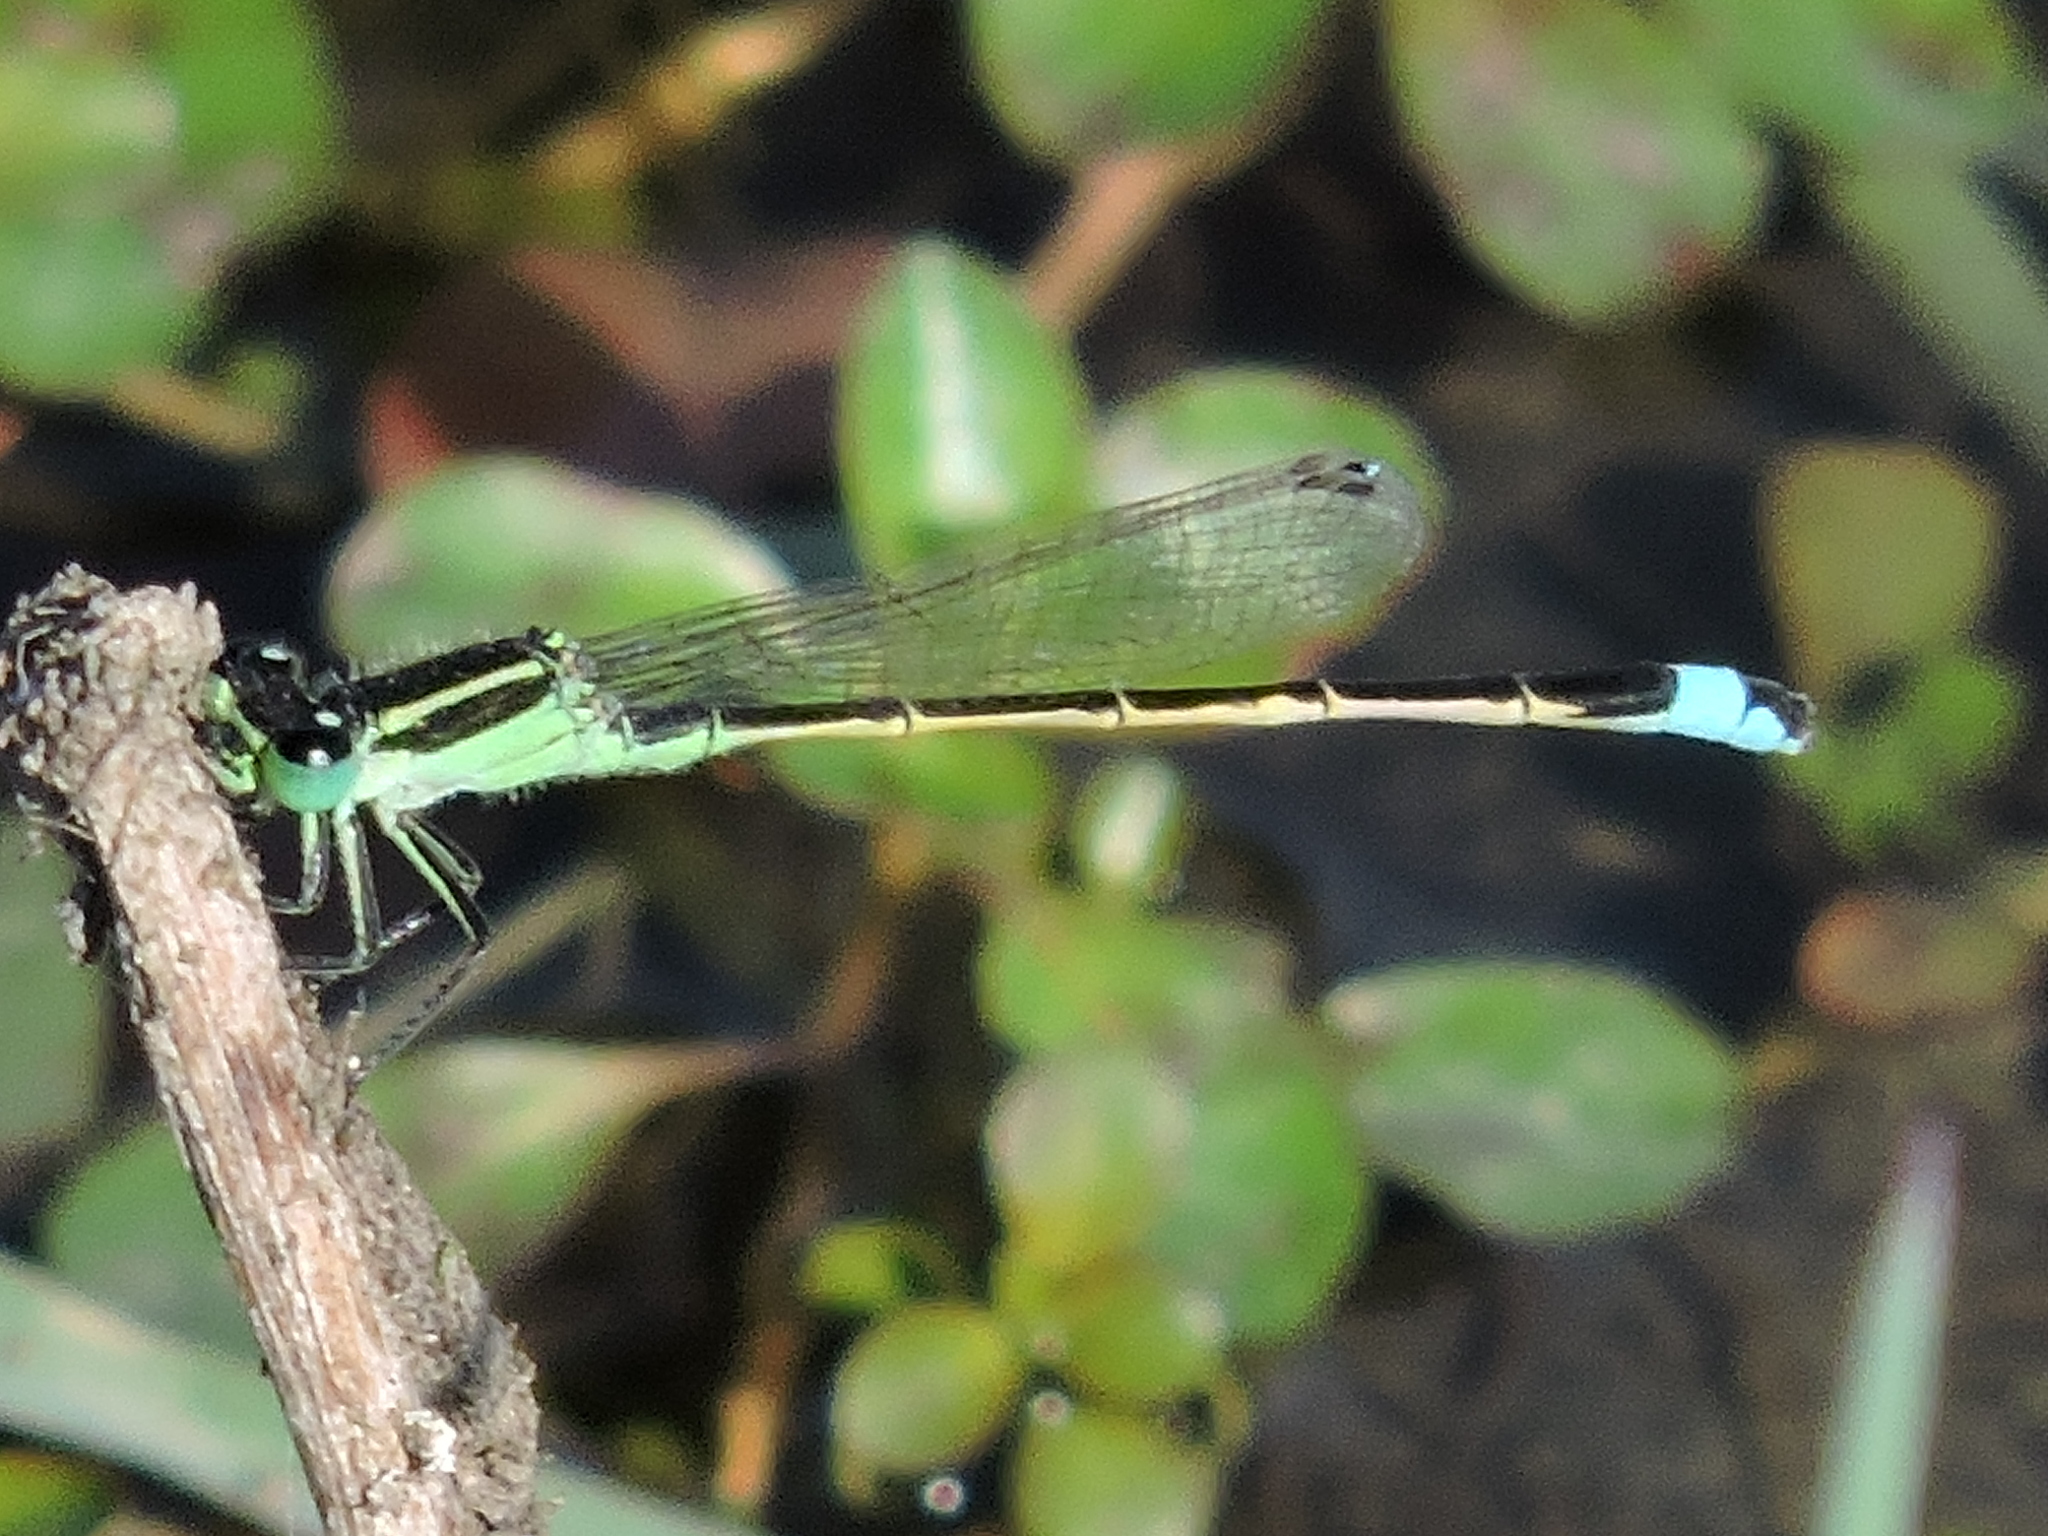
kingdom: Animalia
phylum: Arthropoda
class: Insecta
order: Odonata
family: Coenagrionidae
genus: Ischnura
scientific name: Ischnura ramburii
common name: Rambur's forktail
